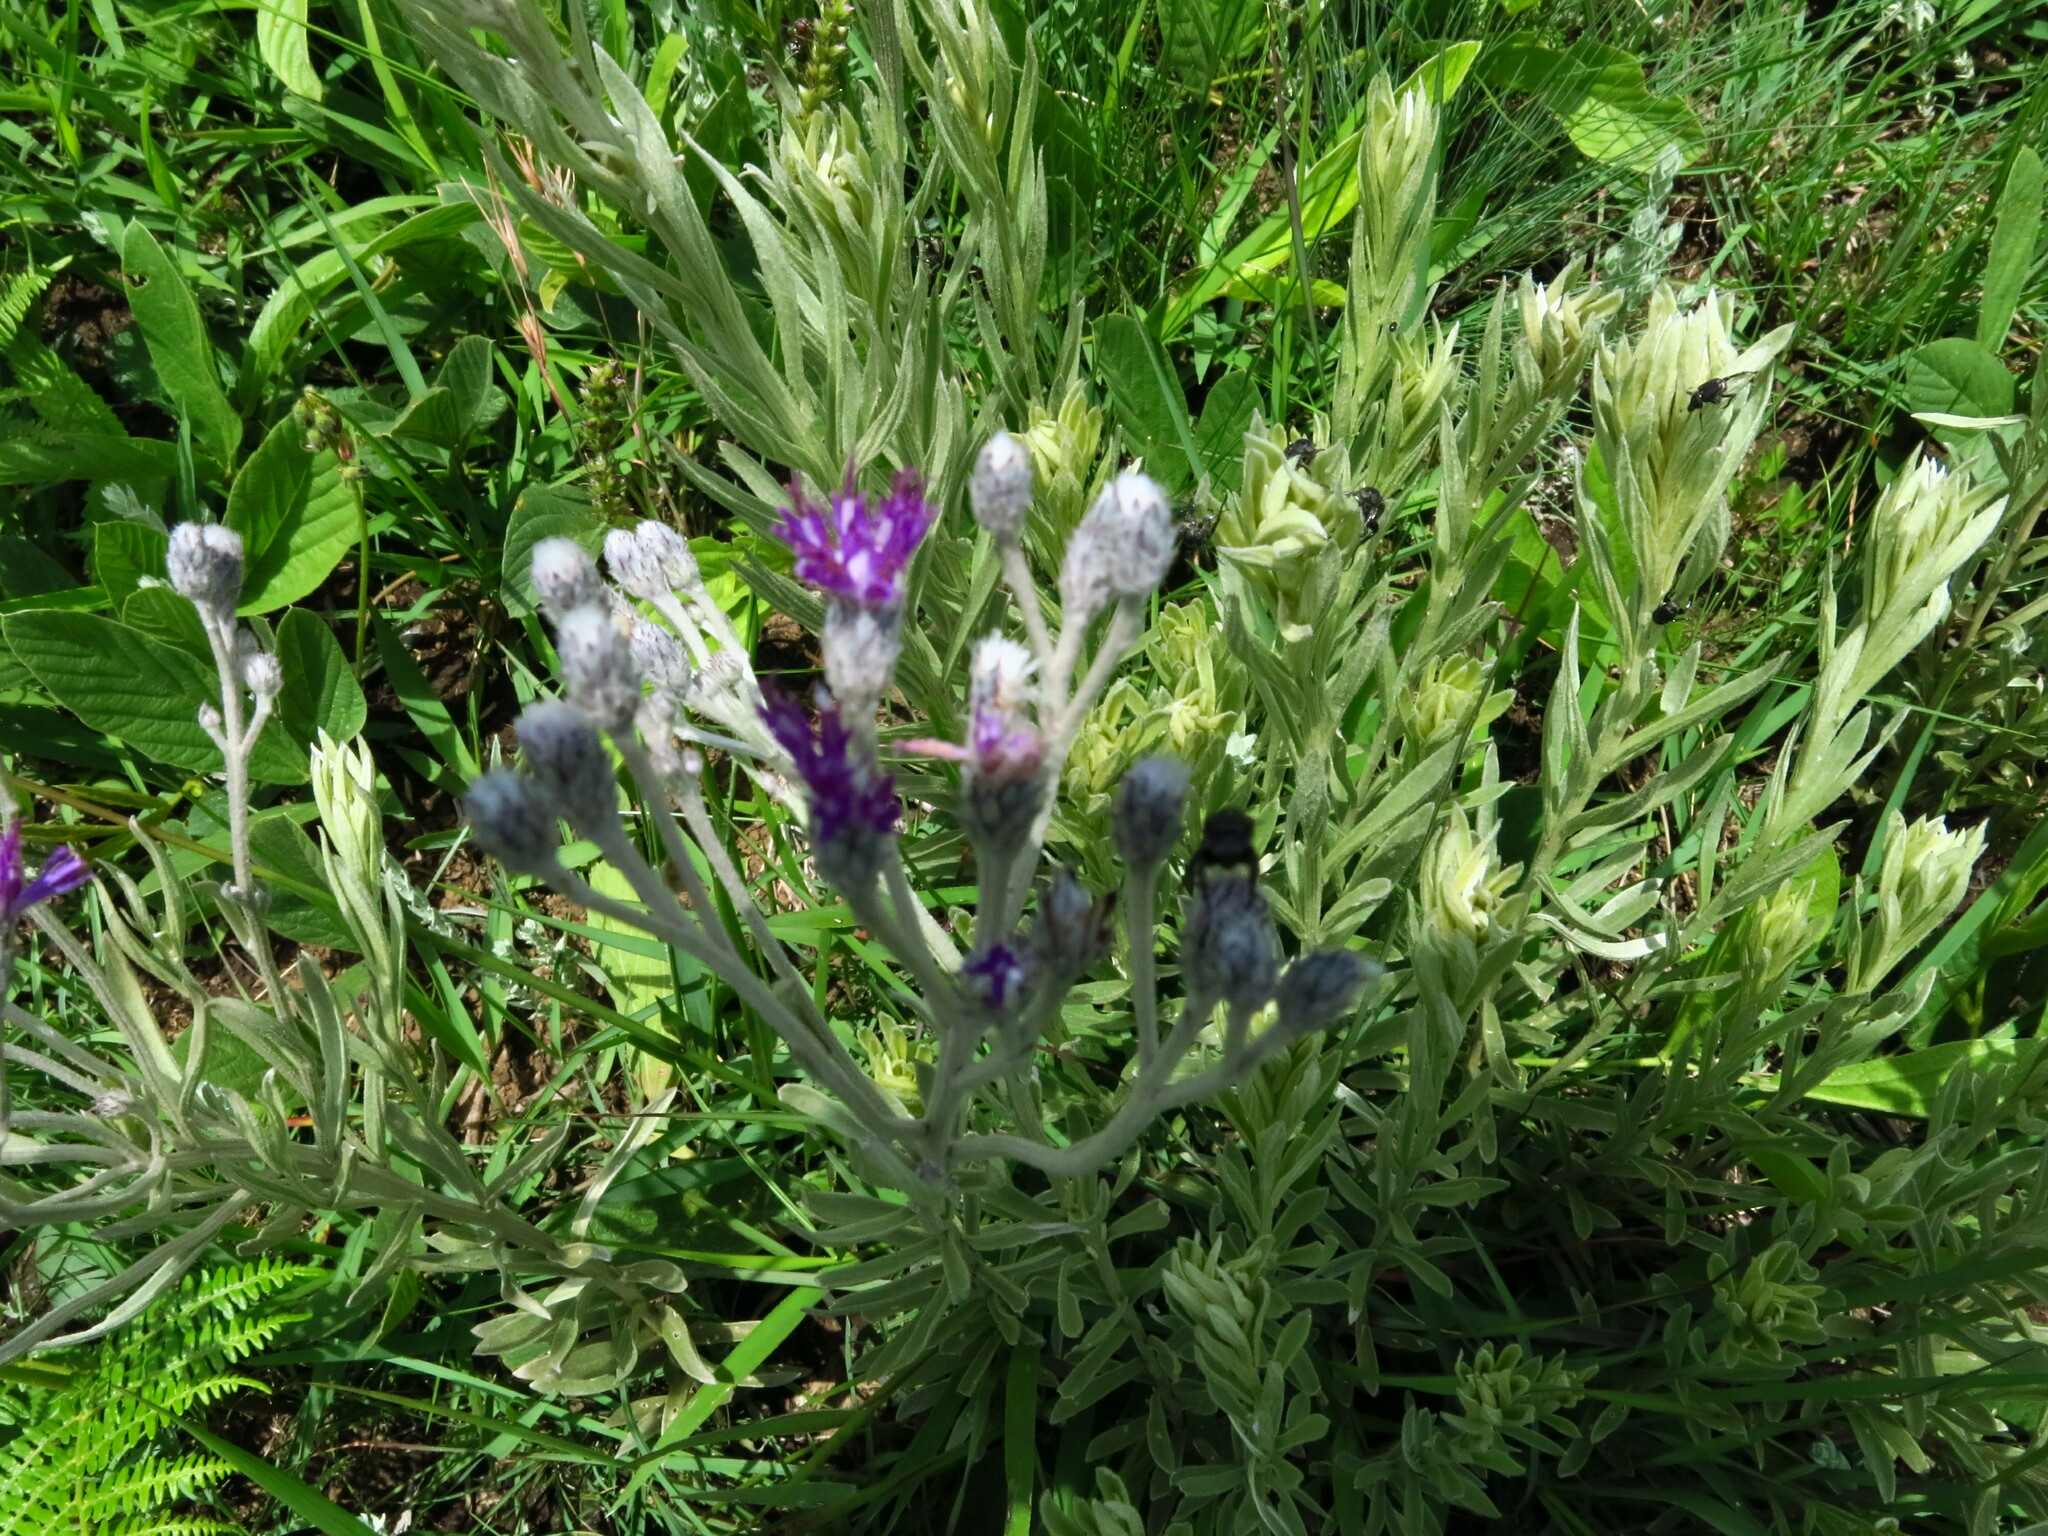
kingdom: Plantae
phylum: Tracheophyta
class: Magnoliopsida
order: Asterales
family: Asteraceae
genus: Hilliardiella
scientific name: Hilliardiella aristata
